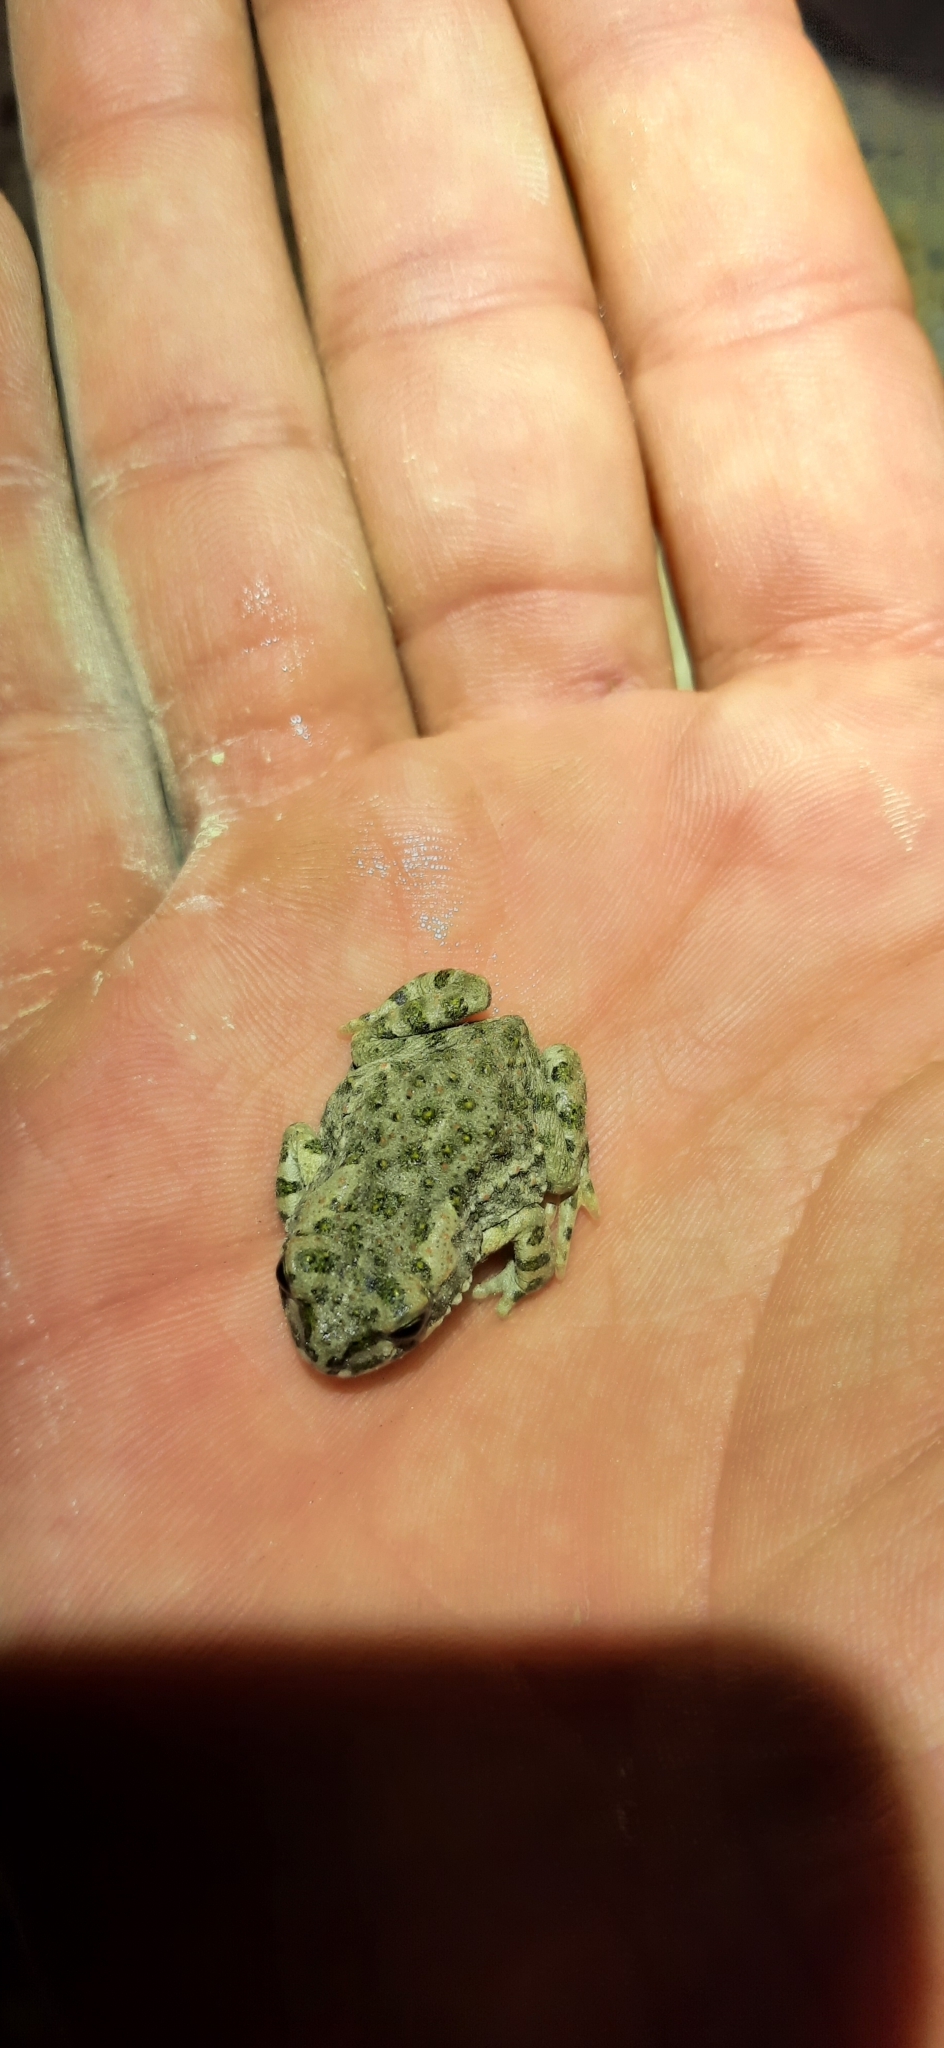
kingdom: Animalia
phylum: Chordata
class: Amphibia
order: Anura
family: Bufonidae
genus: Bufotes
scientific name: Bufotes viridis
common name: European green toad
